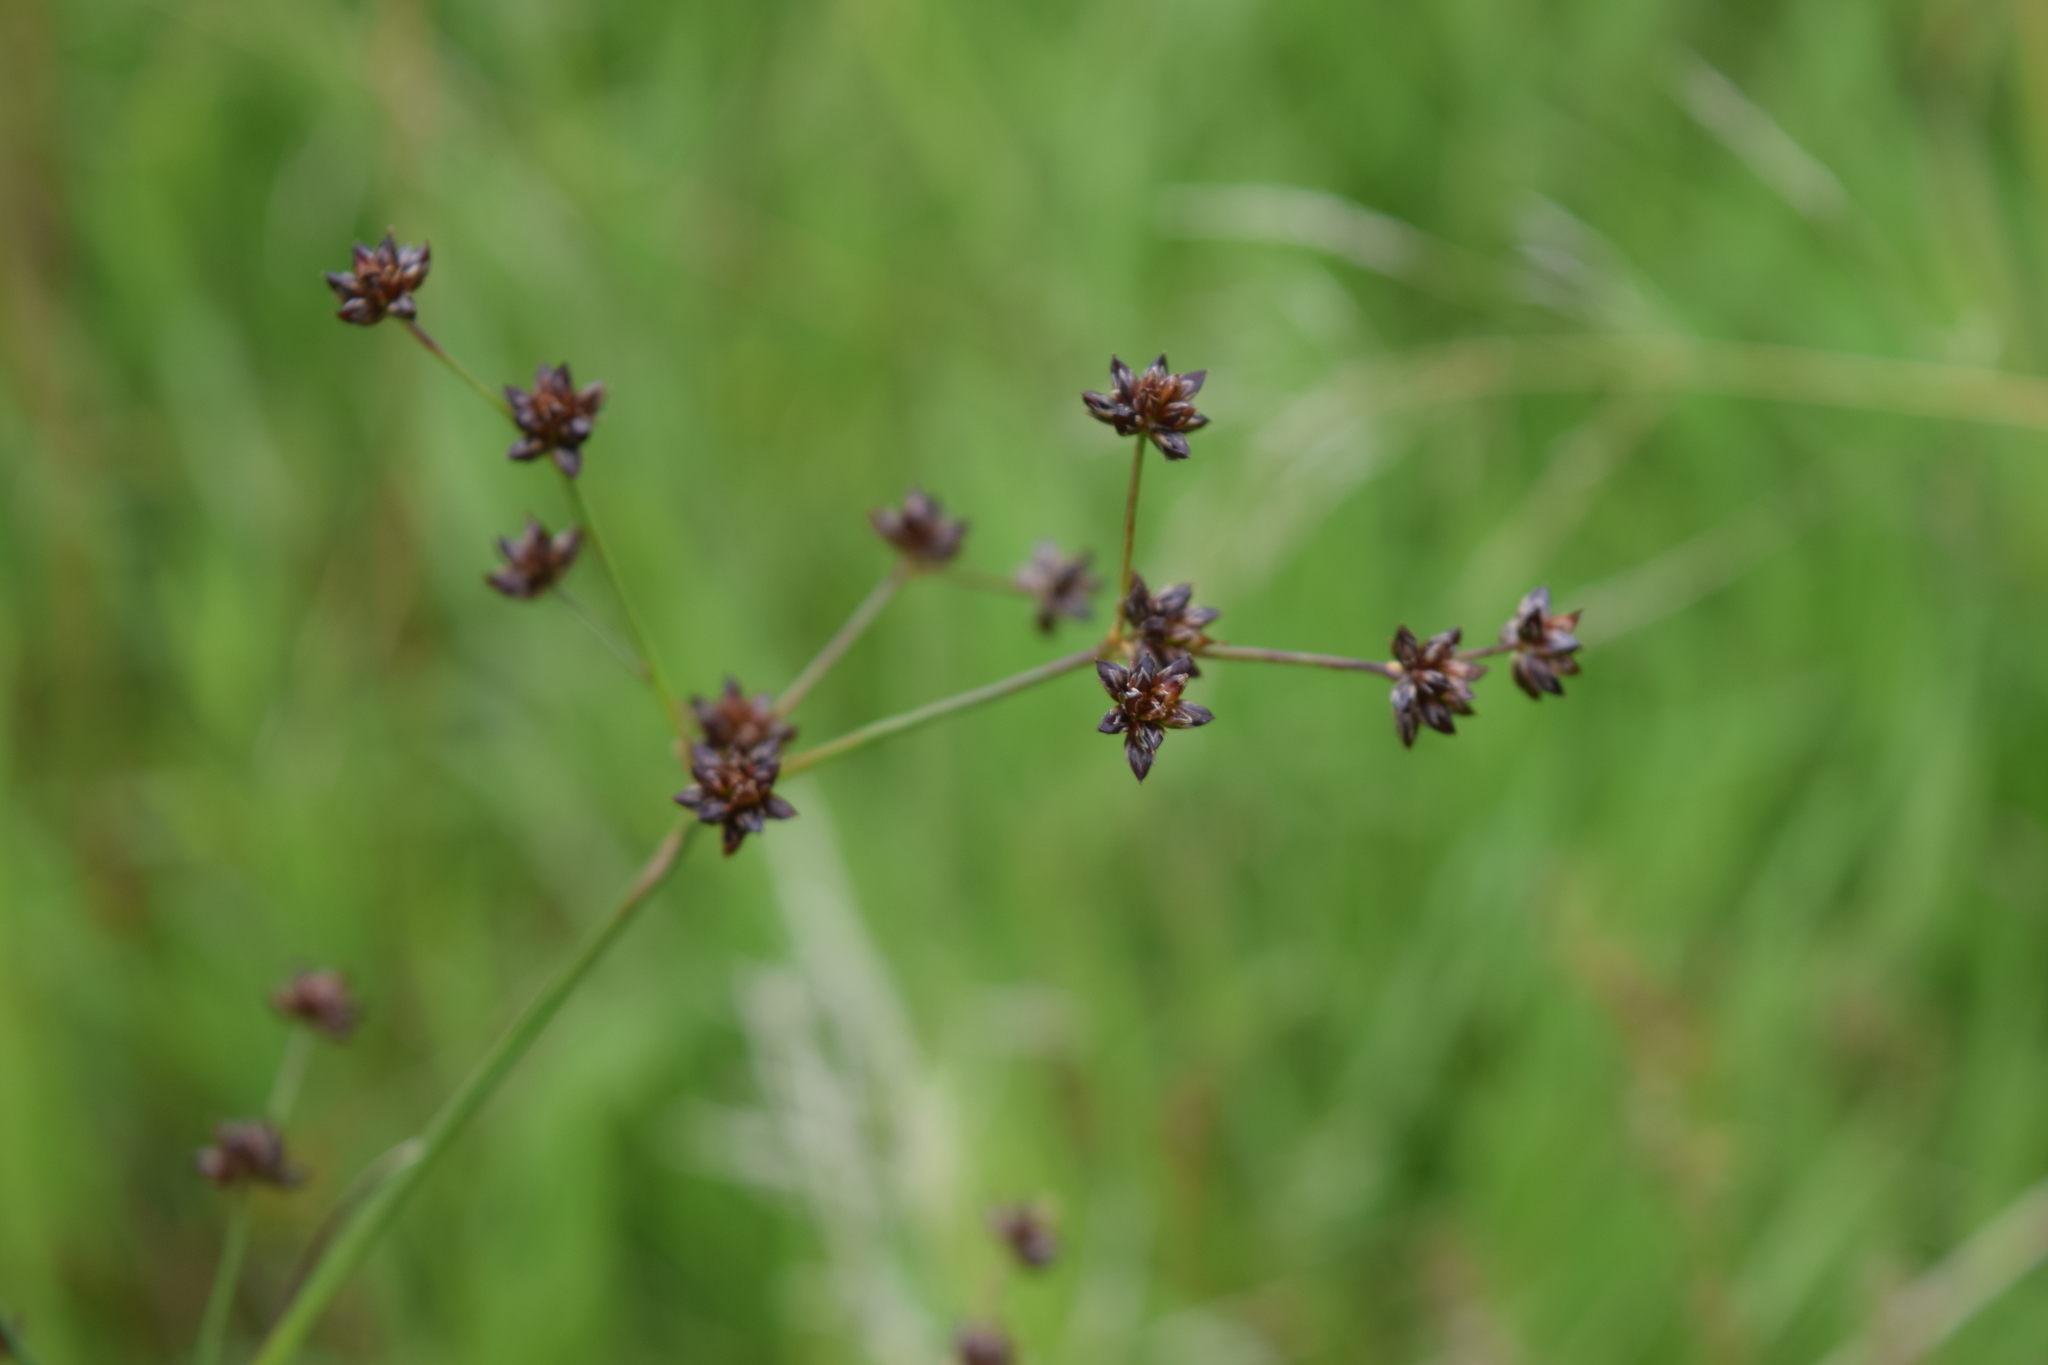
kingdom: Plantae
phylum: Tracheophyta
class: Liliopsida
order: Poales
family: Juncaceae
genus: Juncus
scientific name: Juncus articulatus
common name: Jointed rush
